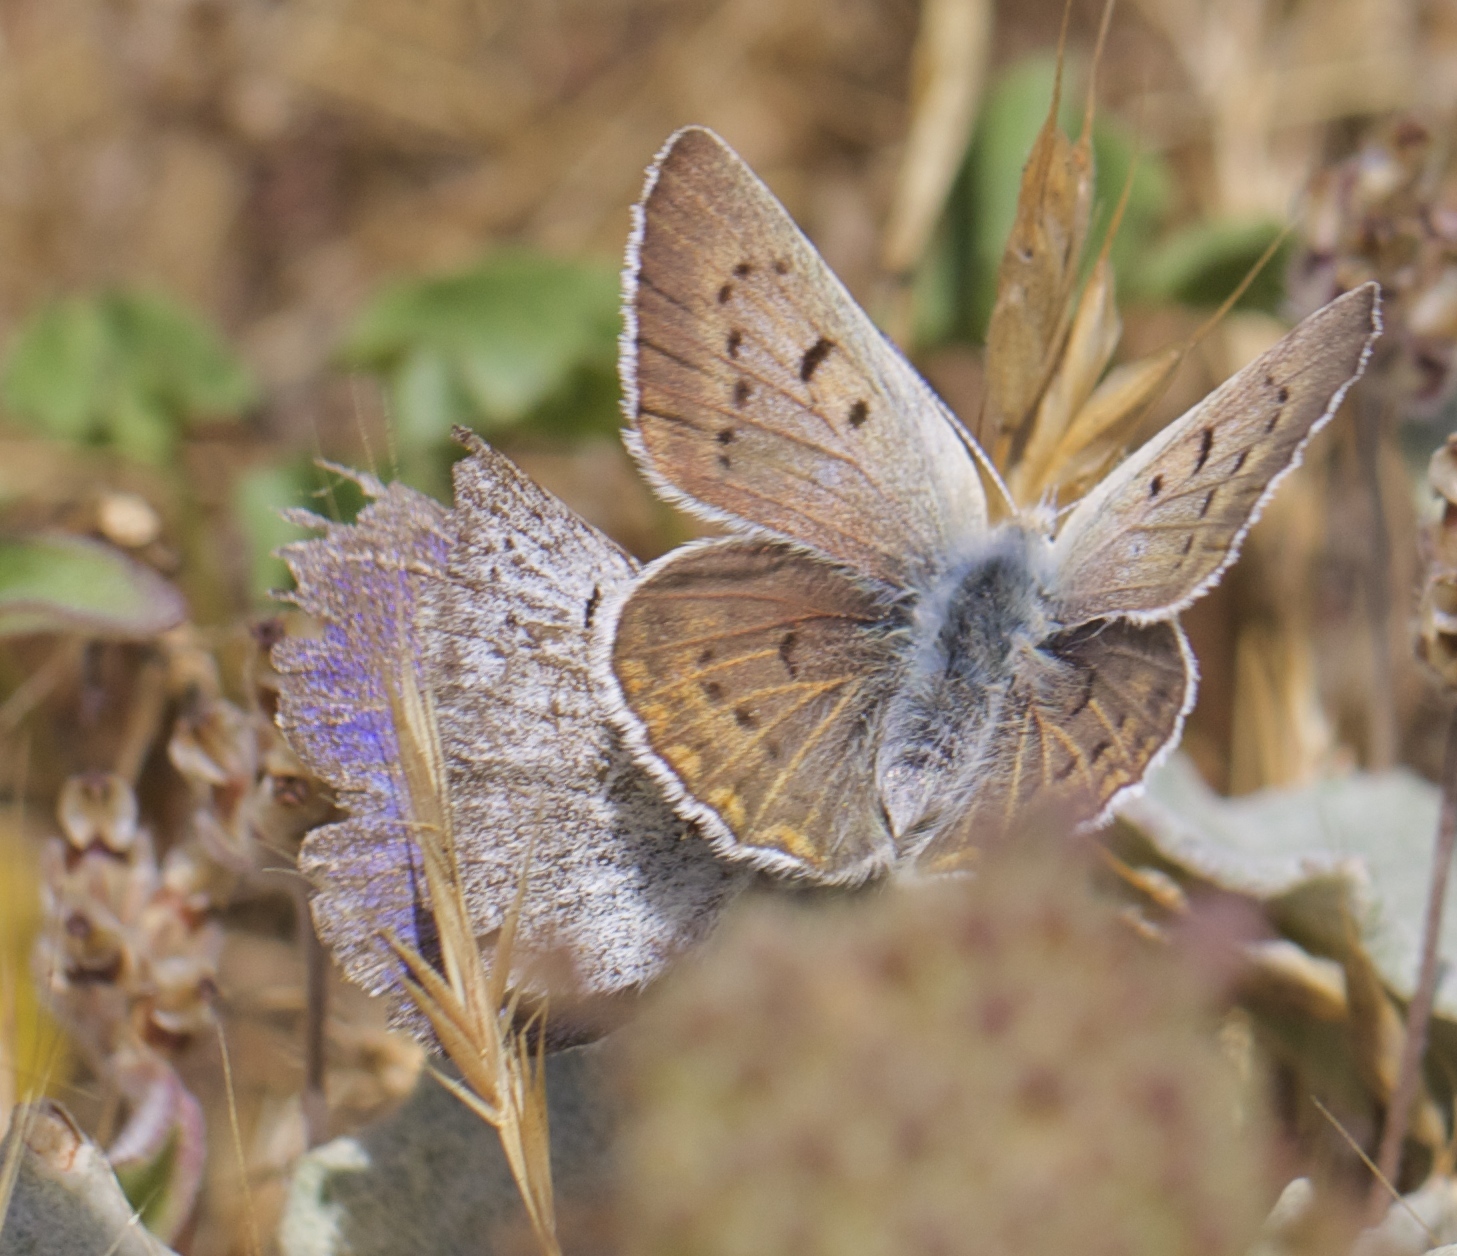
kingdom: Animalia
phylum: Arthropoda
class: Insecta
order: Lepidoptera
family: Lycaenidae
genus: Tharsalea
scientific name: Tharsalea heteronea
